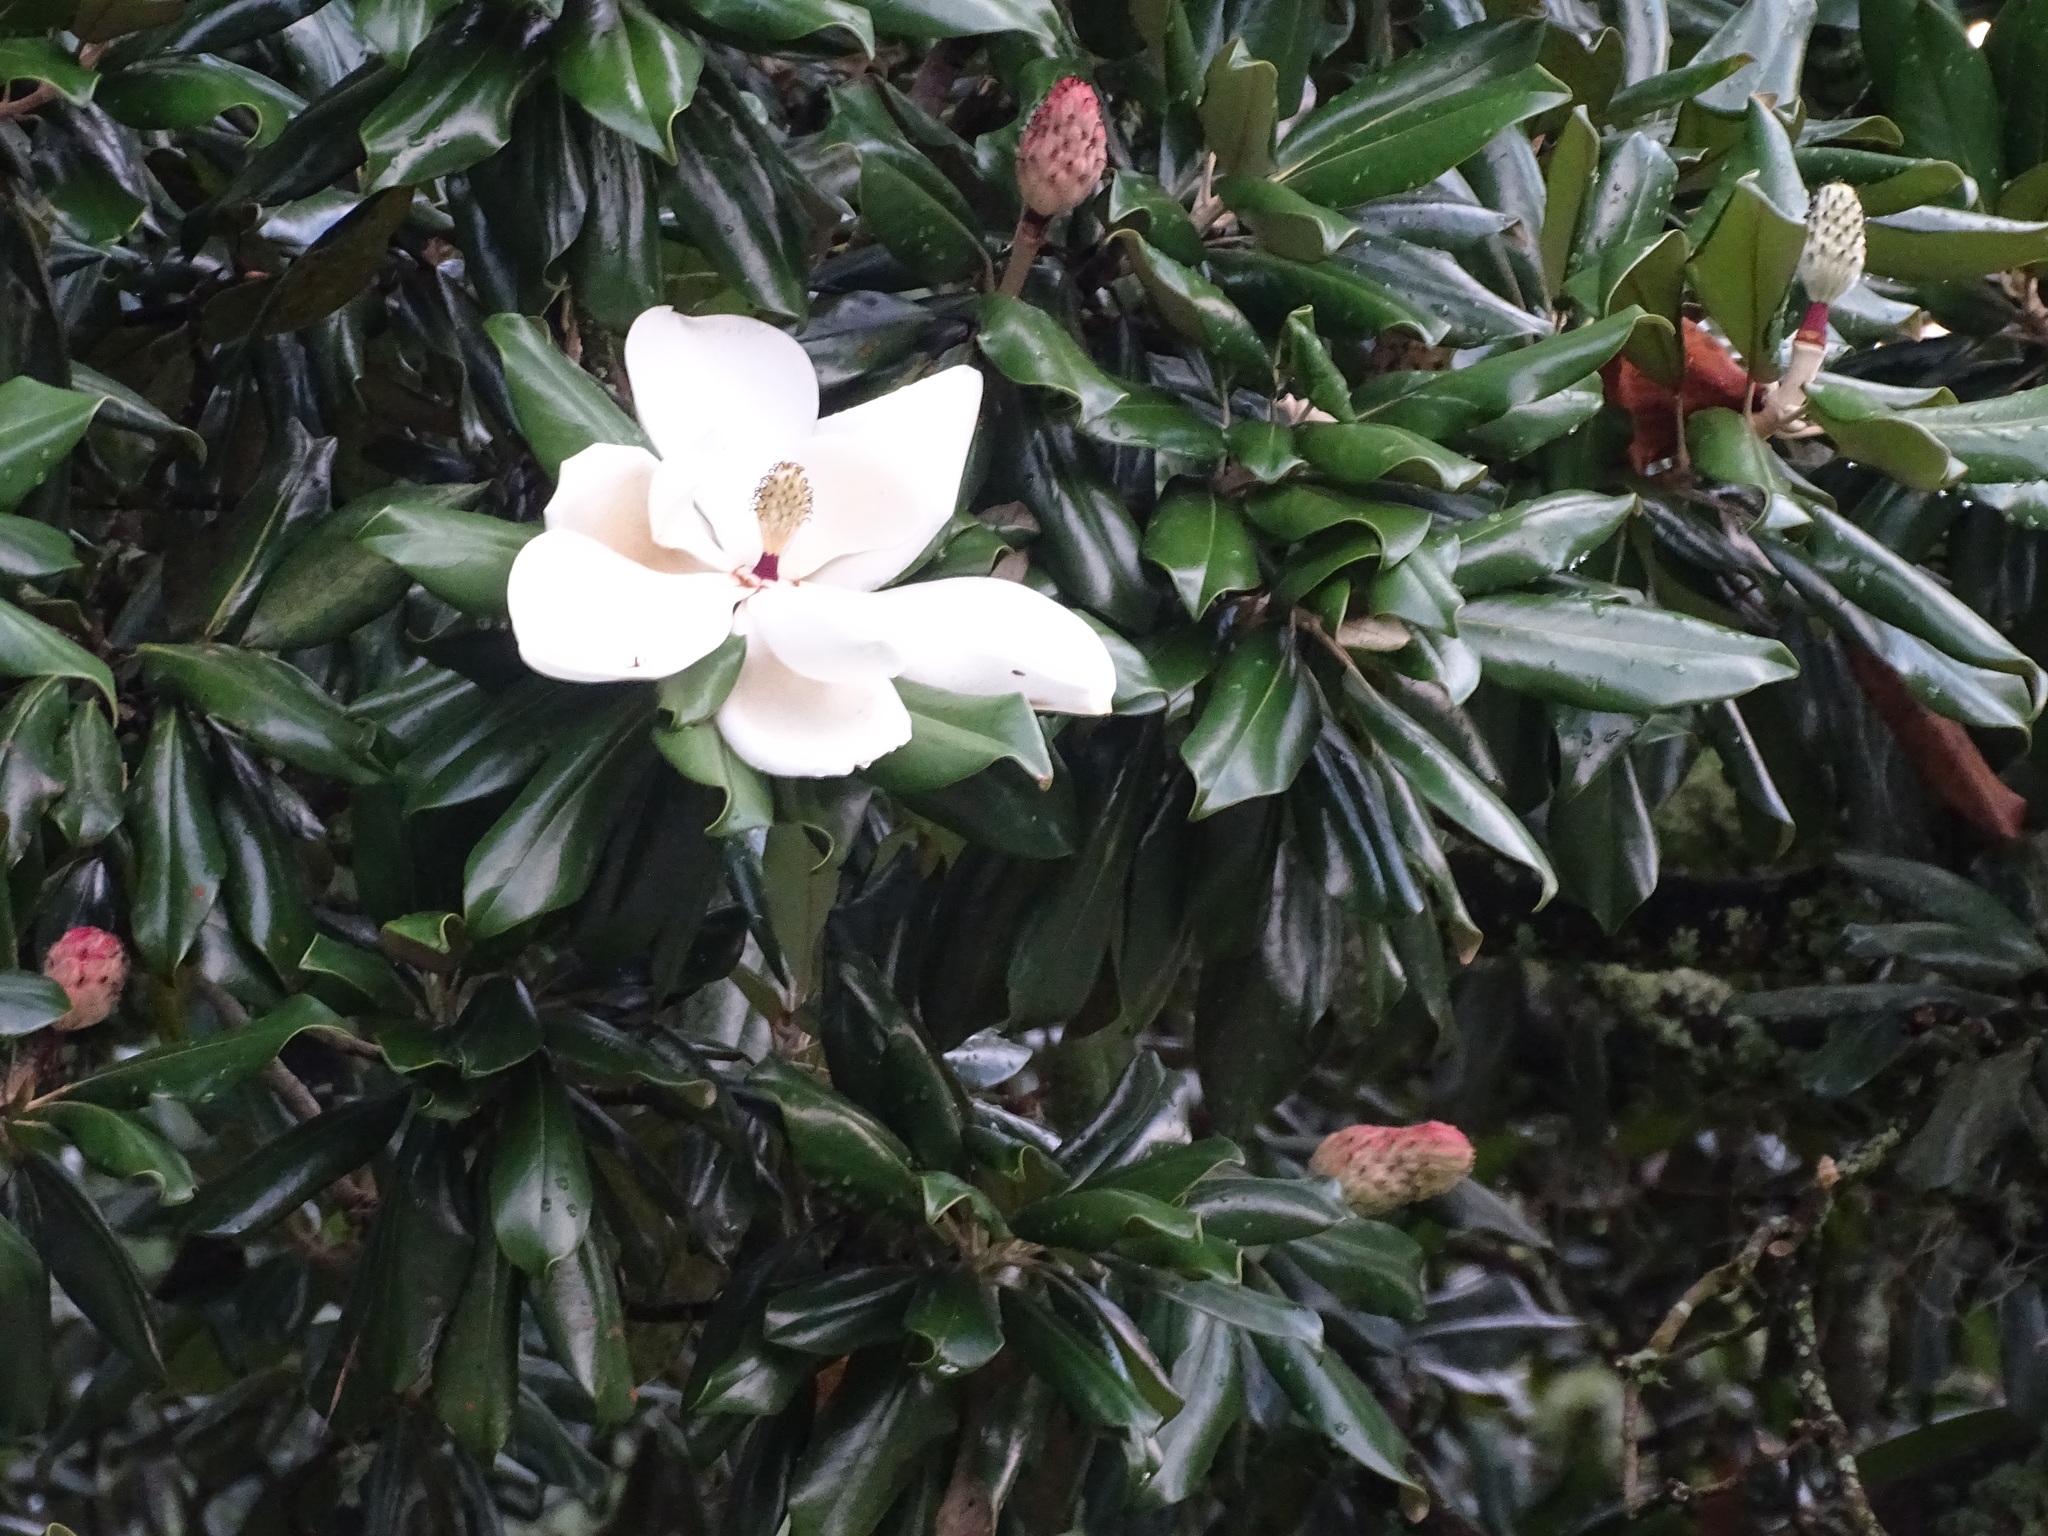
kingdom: Plantae
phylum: Tracheophyta
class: Magnoliopsida
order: Magnoliales
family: Magnoliaceae
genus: Magnolia
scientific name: Magnolia grandiflora
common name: Southern magnolia
